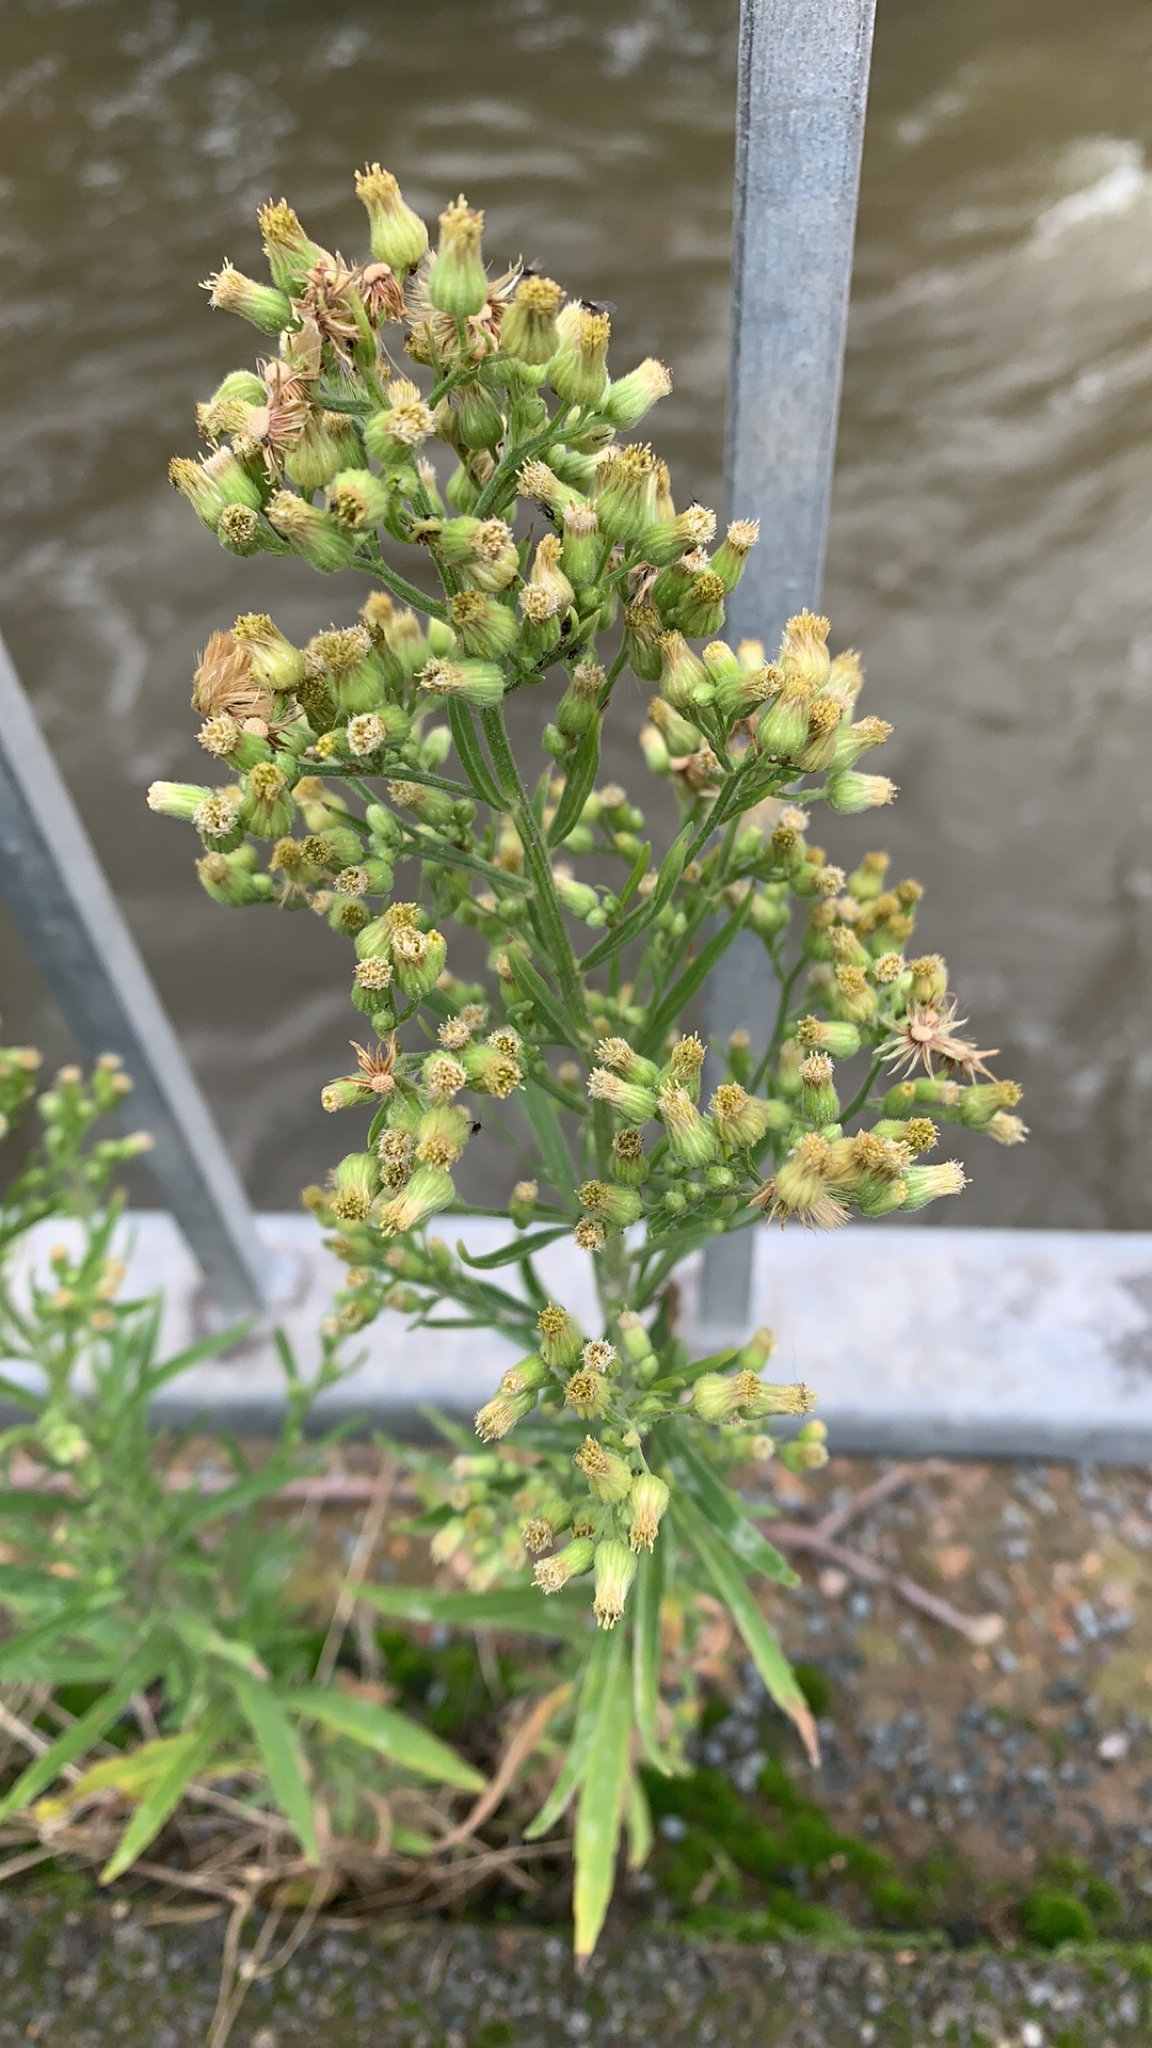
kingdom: Plantae
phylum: Tracheophyta
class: Magnoliopsida
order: Asterales
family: Asteraceae
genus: Erigeron
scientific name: Erigeron sumatrensis
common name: Daisy
